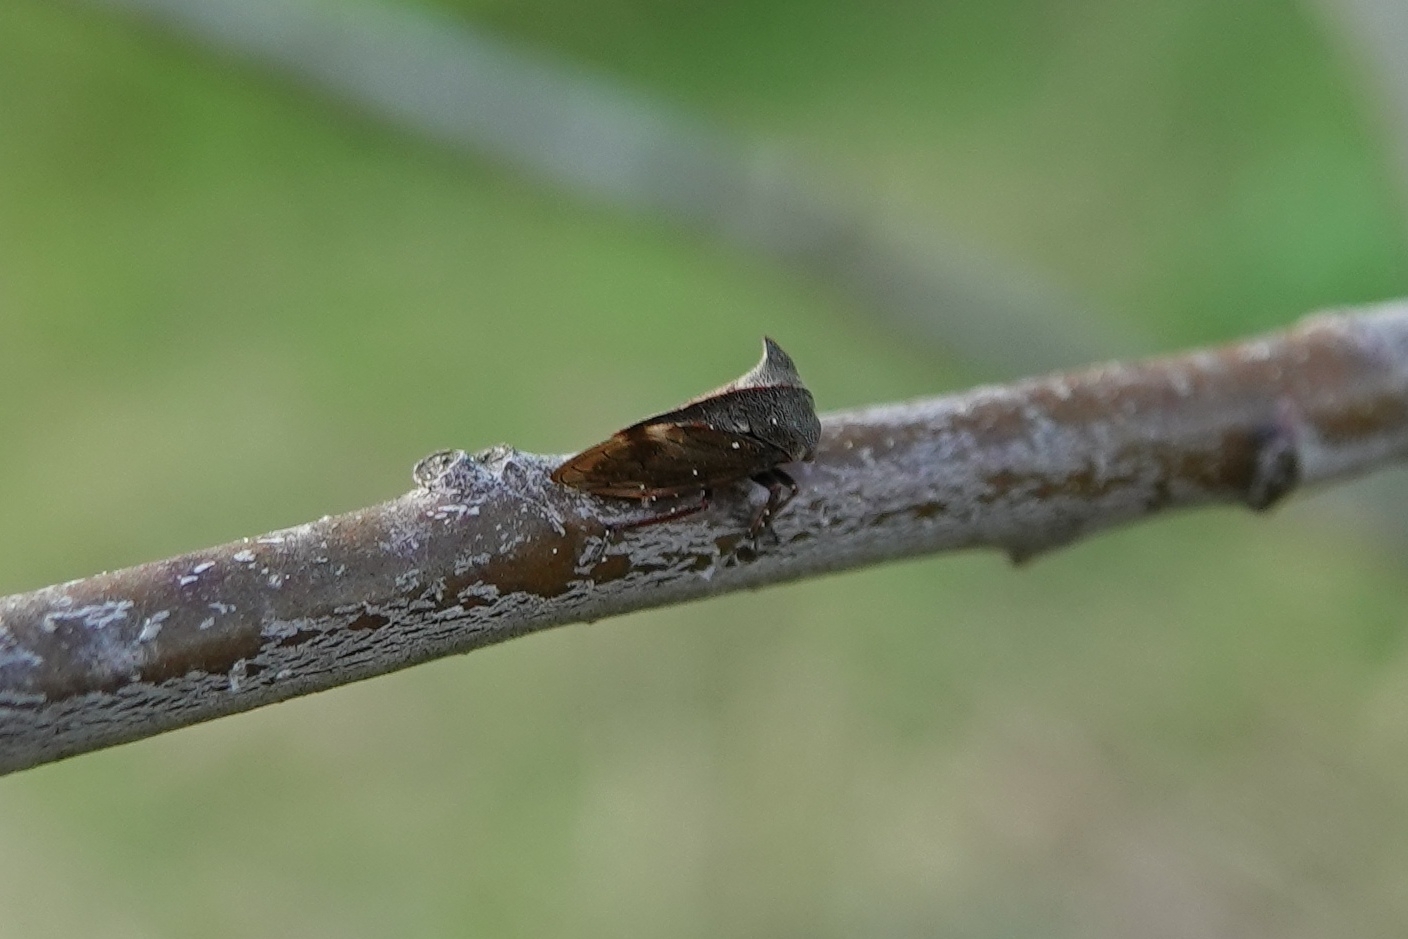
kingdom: Animalia
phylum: Arthropoda
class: Insecta
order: Hemiptera
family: Membracidae
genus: Centrotus
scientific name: Centrotus cornuta
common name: Treehopper
